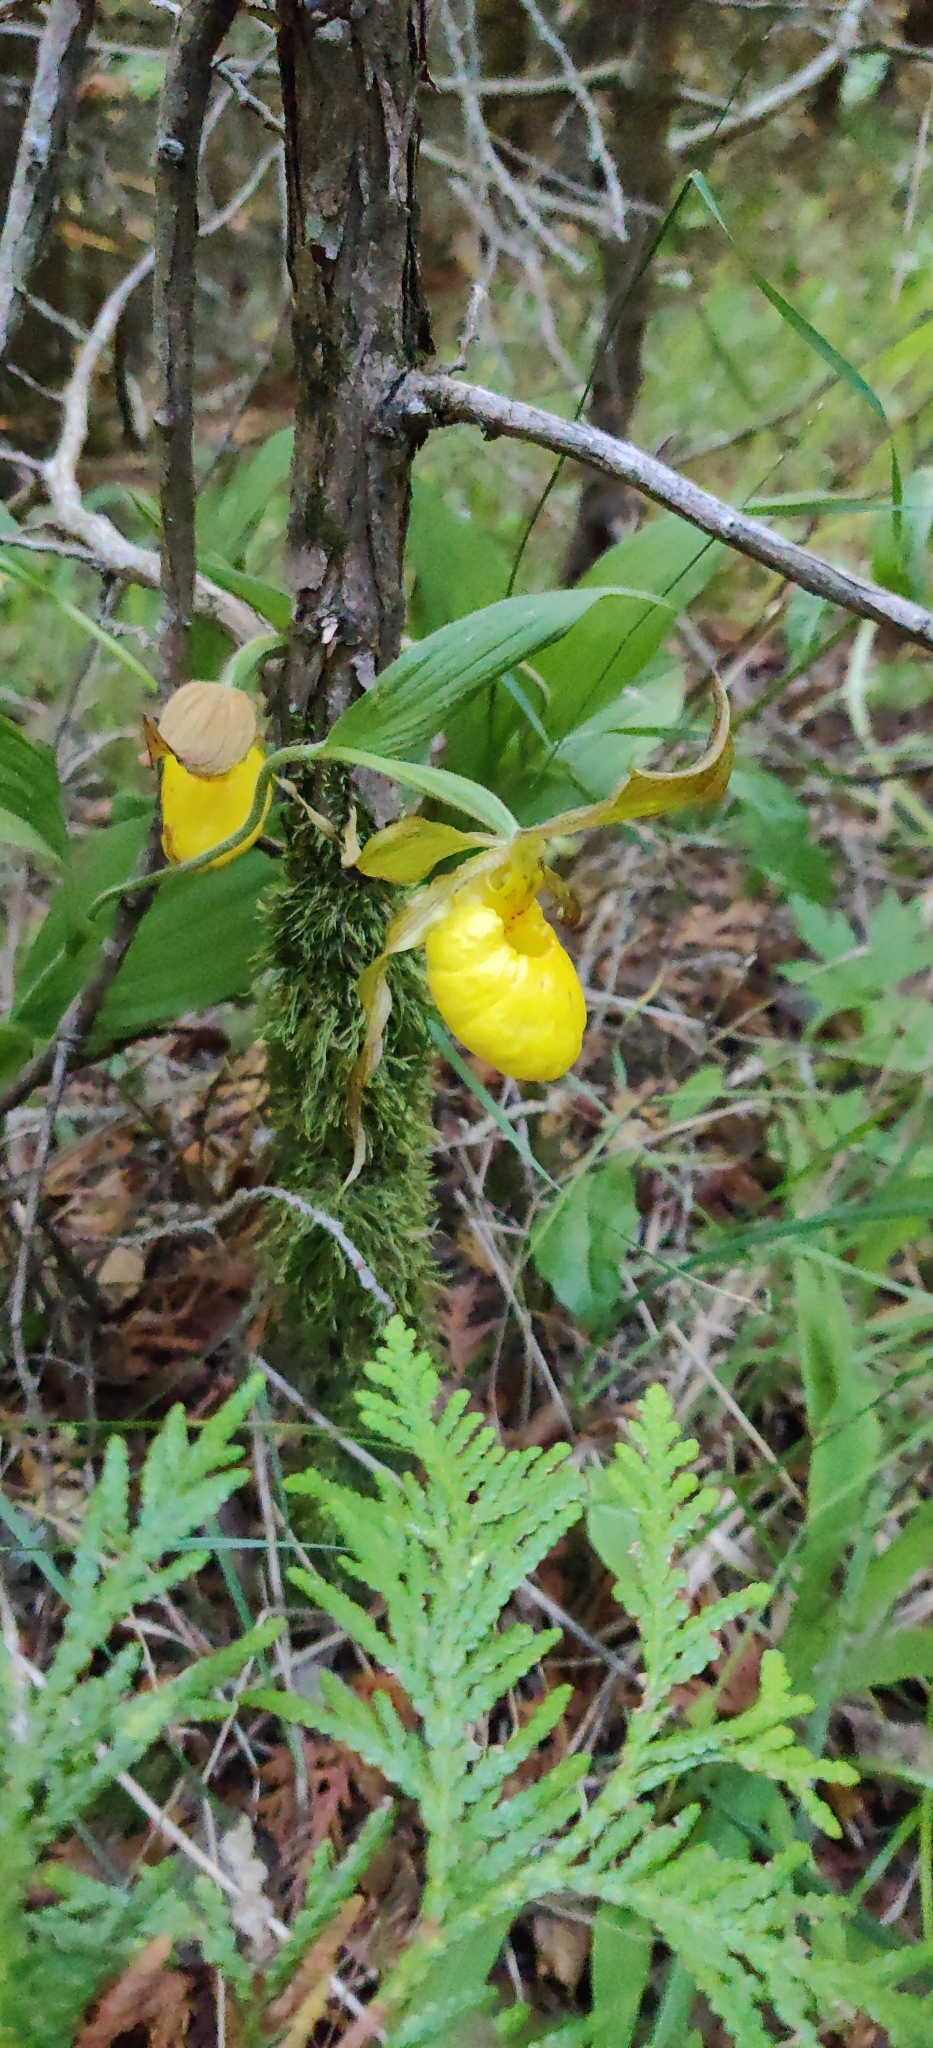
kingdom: Plantae
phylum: Tracheophyta
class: Liliopsida
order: Asparagales
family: Orchidaceae
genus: Cypripedium
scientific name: Cypripedium parviflorum
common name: American yellow lady's-slipper
